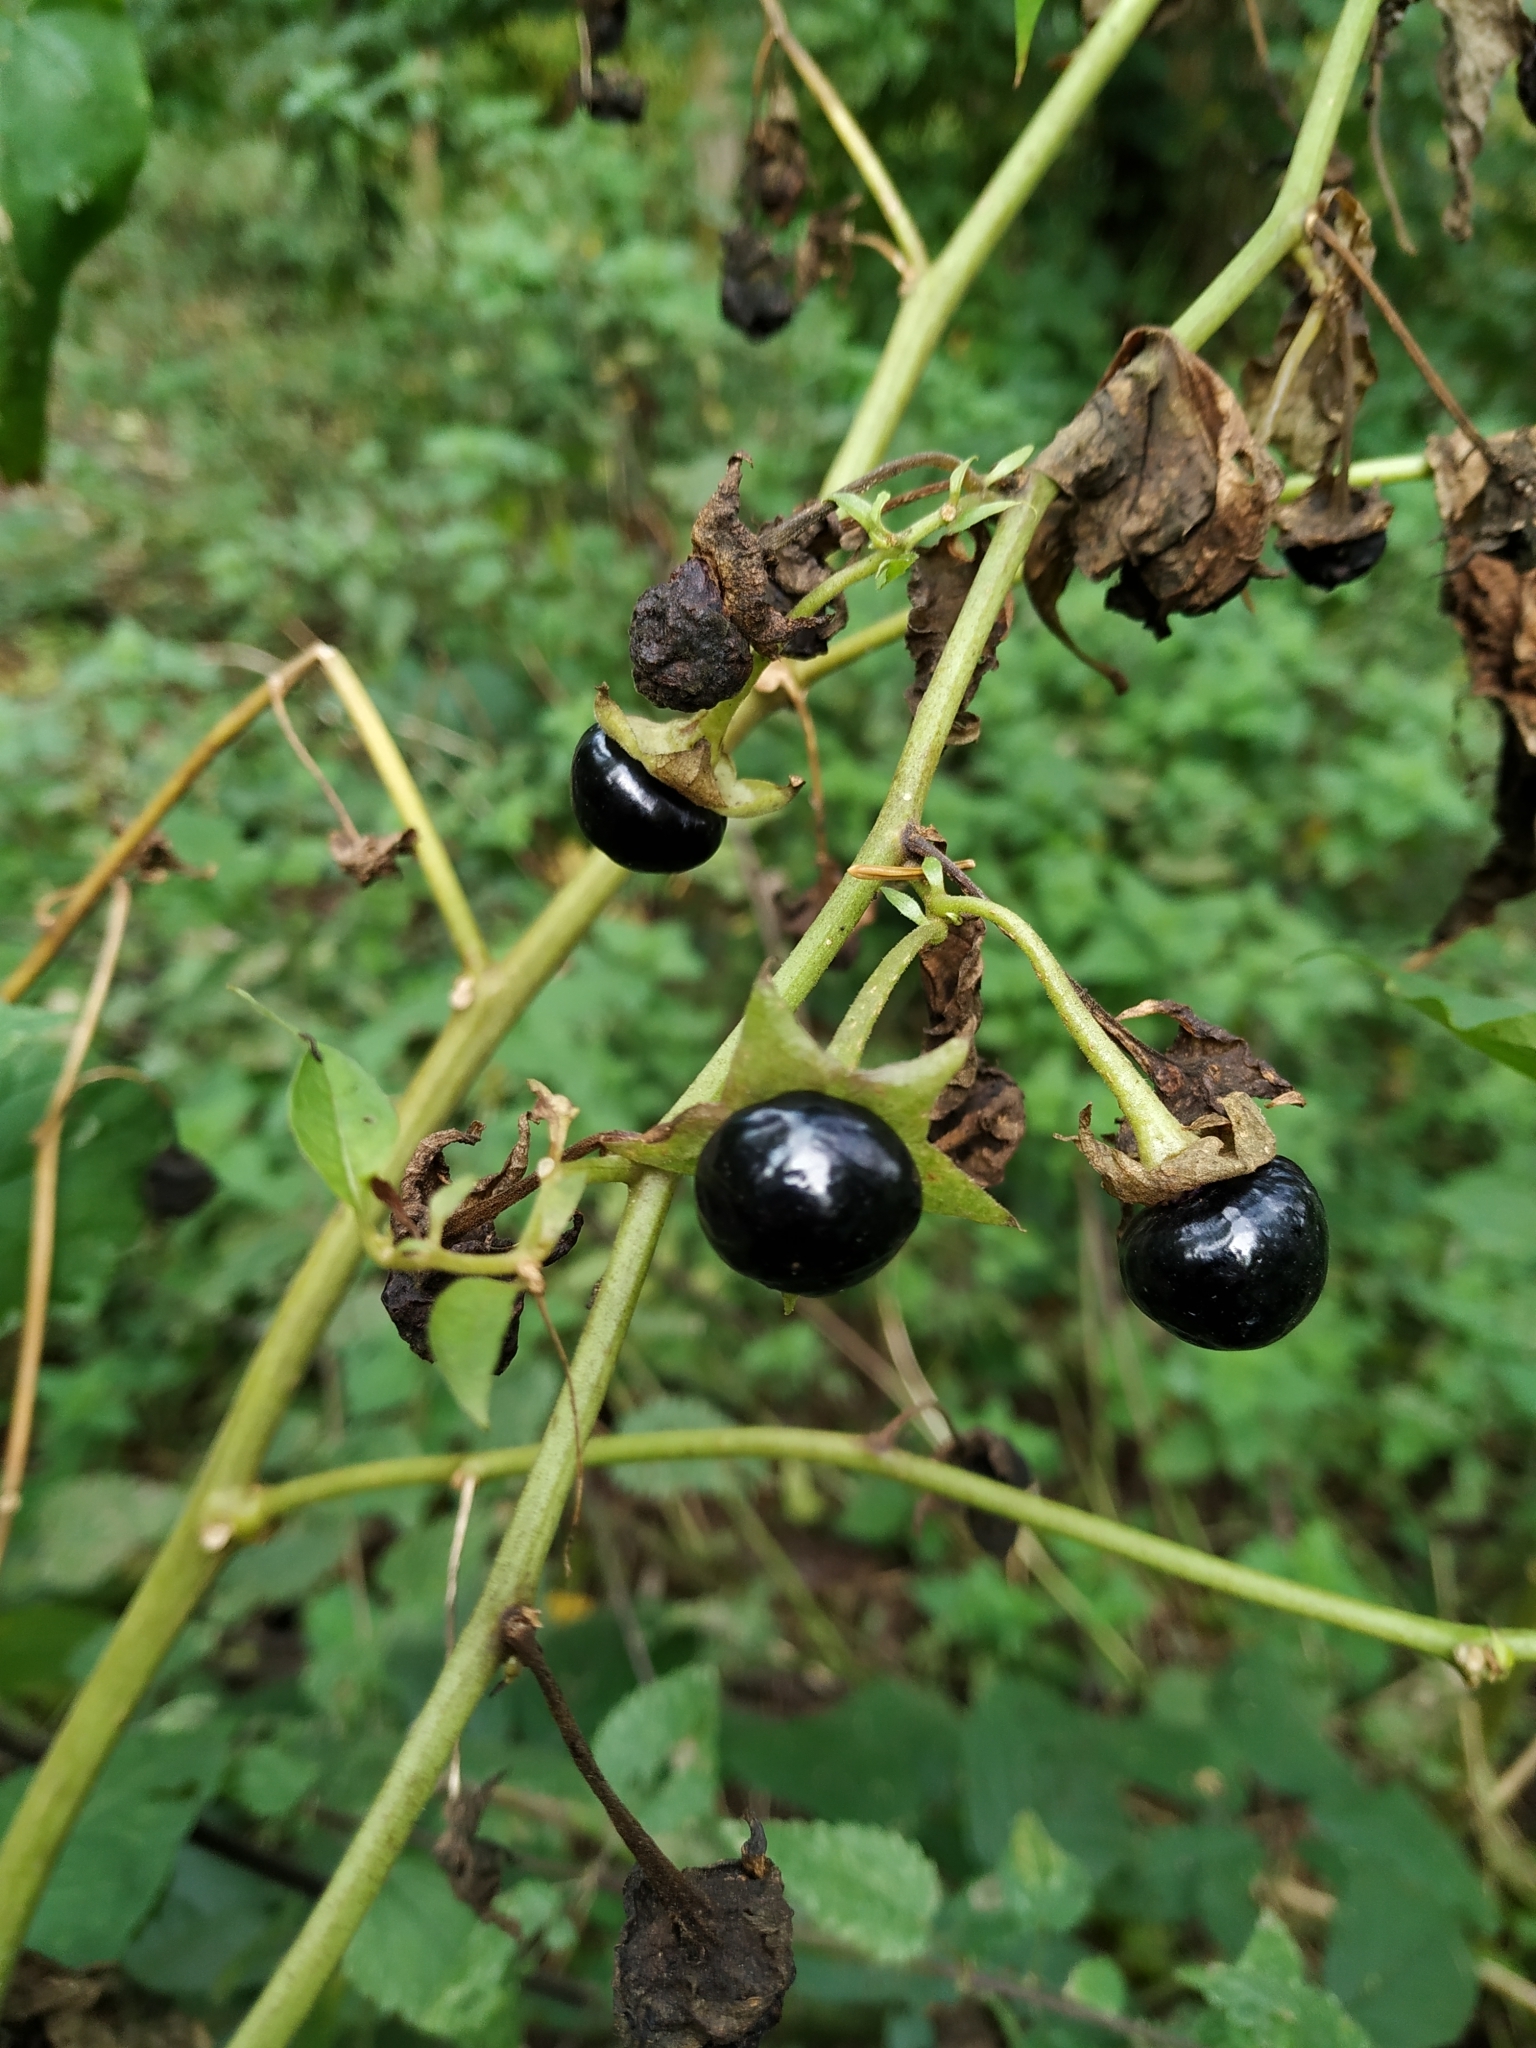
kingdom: Plantae
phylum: Tracheophyta
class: Magnoliopsida
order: Solanales
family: Solanaceae
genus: Atropa
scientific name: Atropa belladonna
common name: Deadly nightshade
